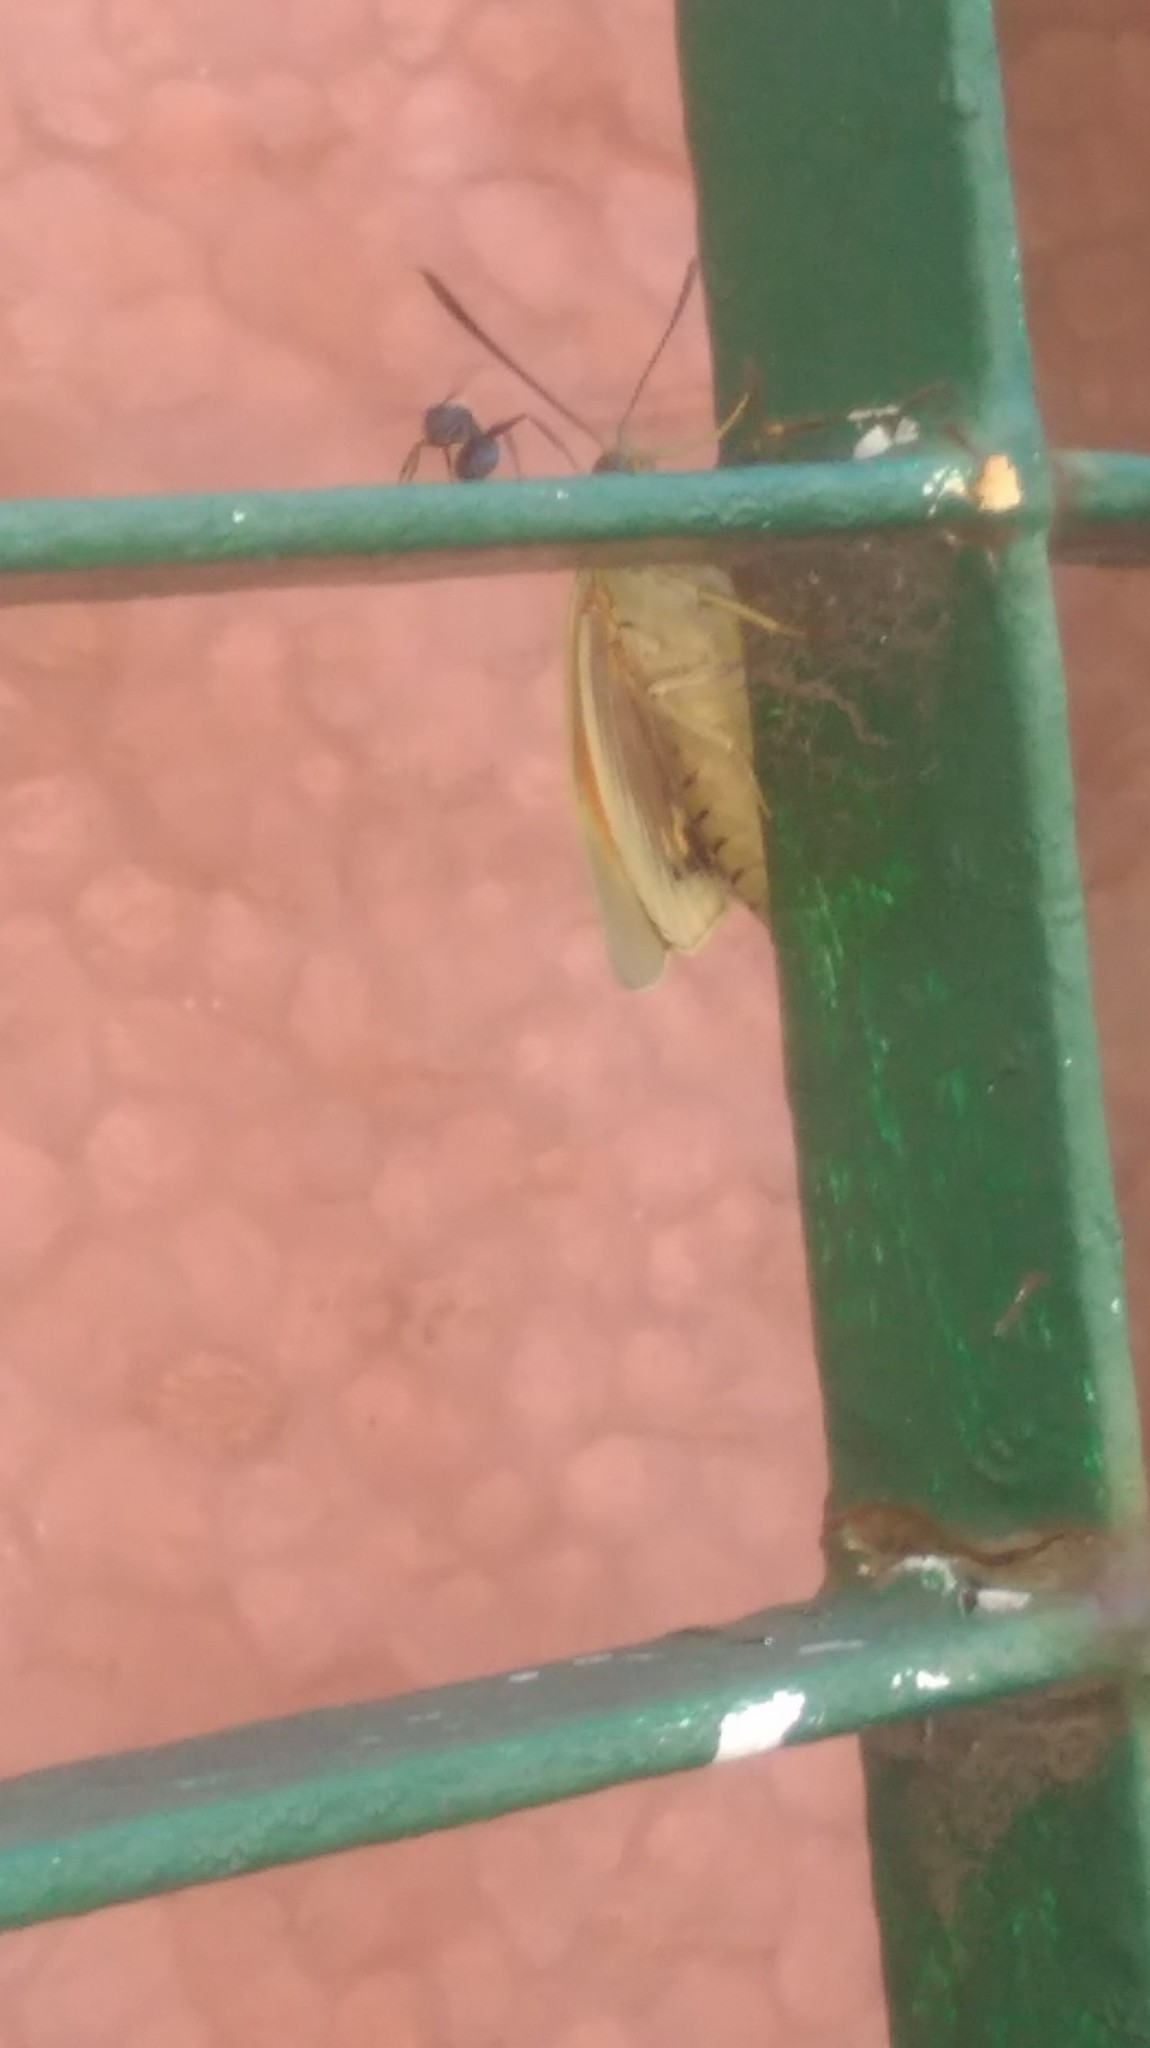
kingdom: Animalia
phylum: Arthropoda
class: Insecta
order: Lepidoptera
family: Castniidae
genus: Paysandisia
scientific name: Paysandisia archon
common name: Palm moth
